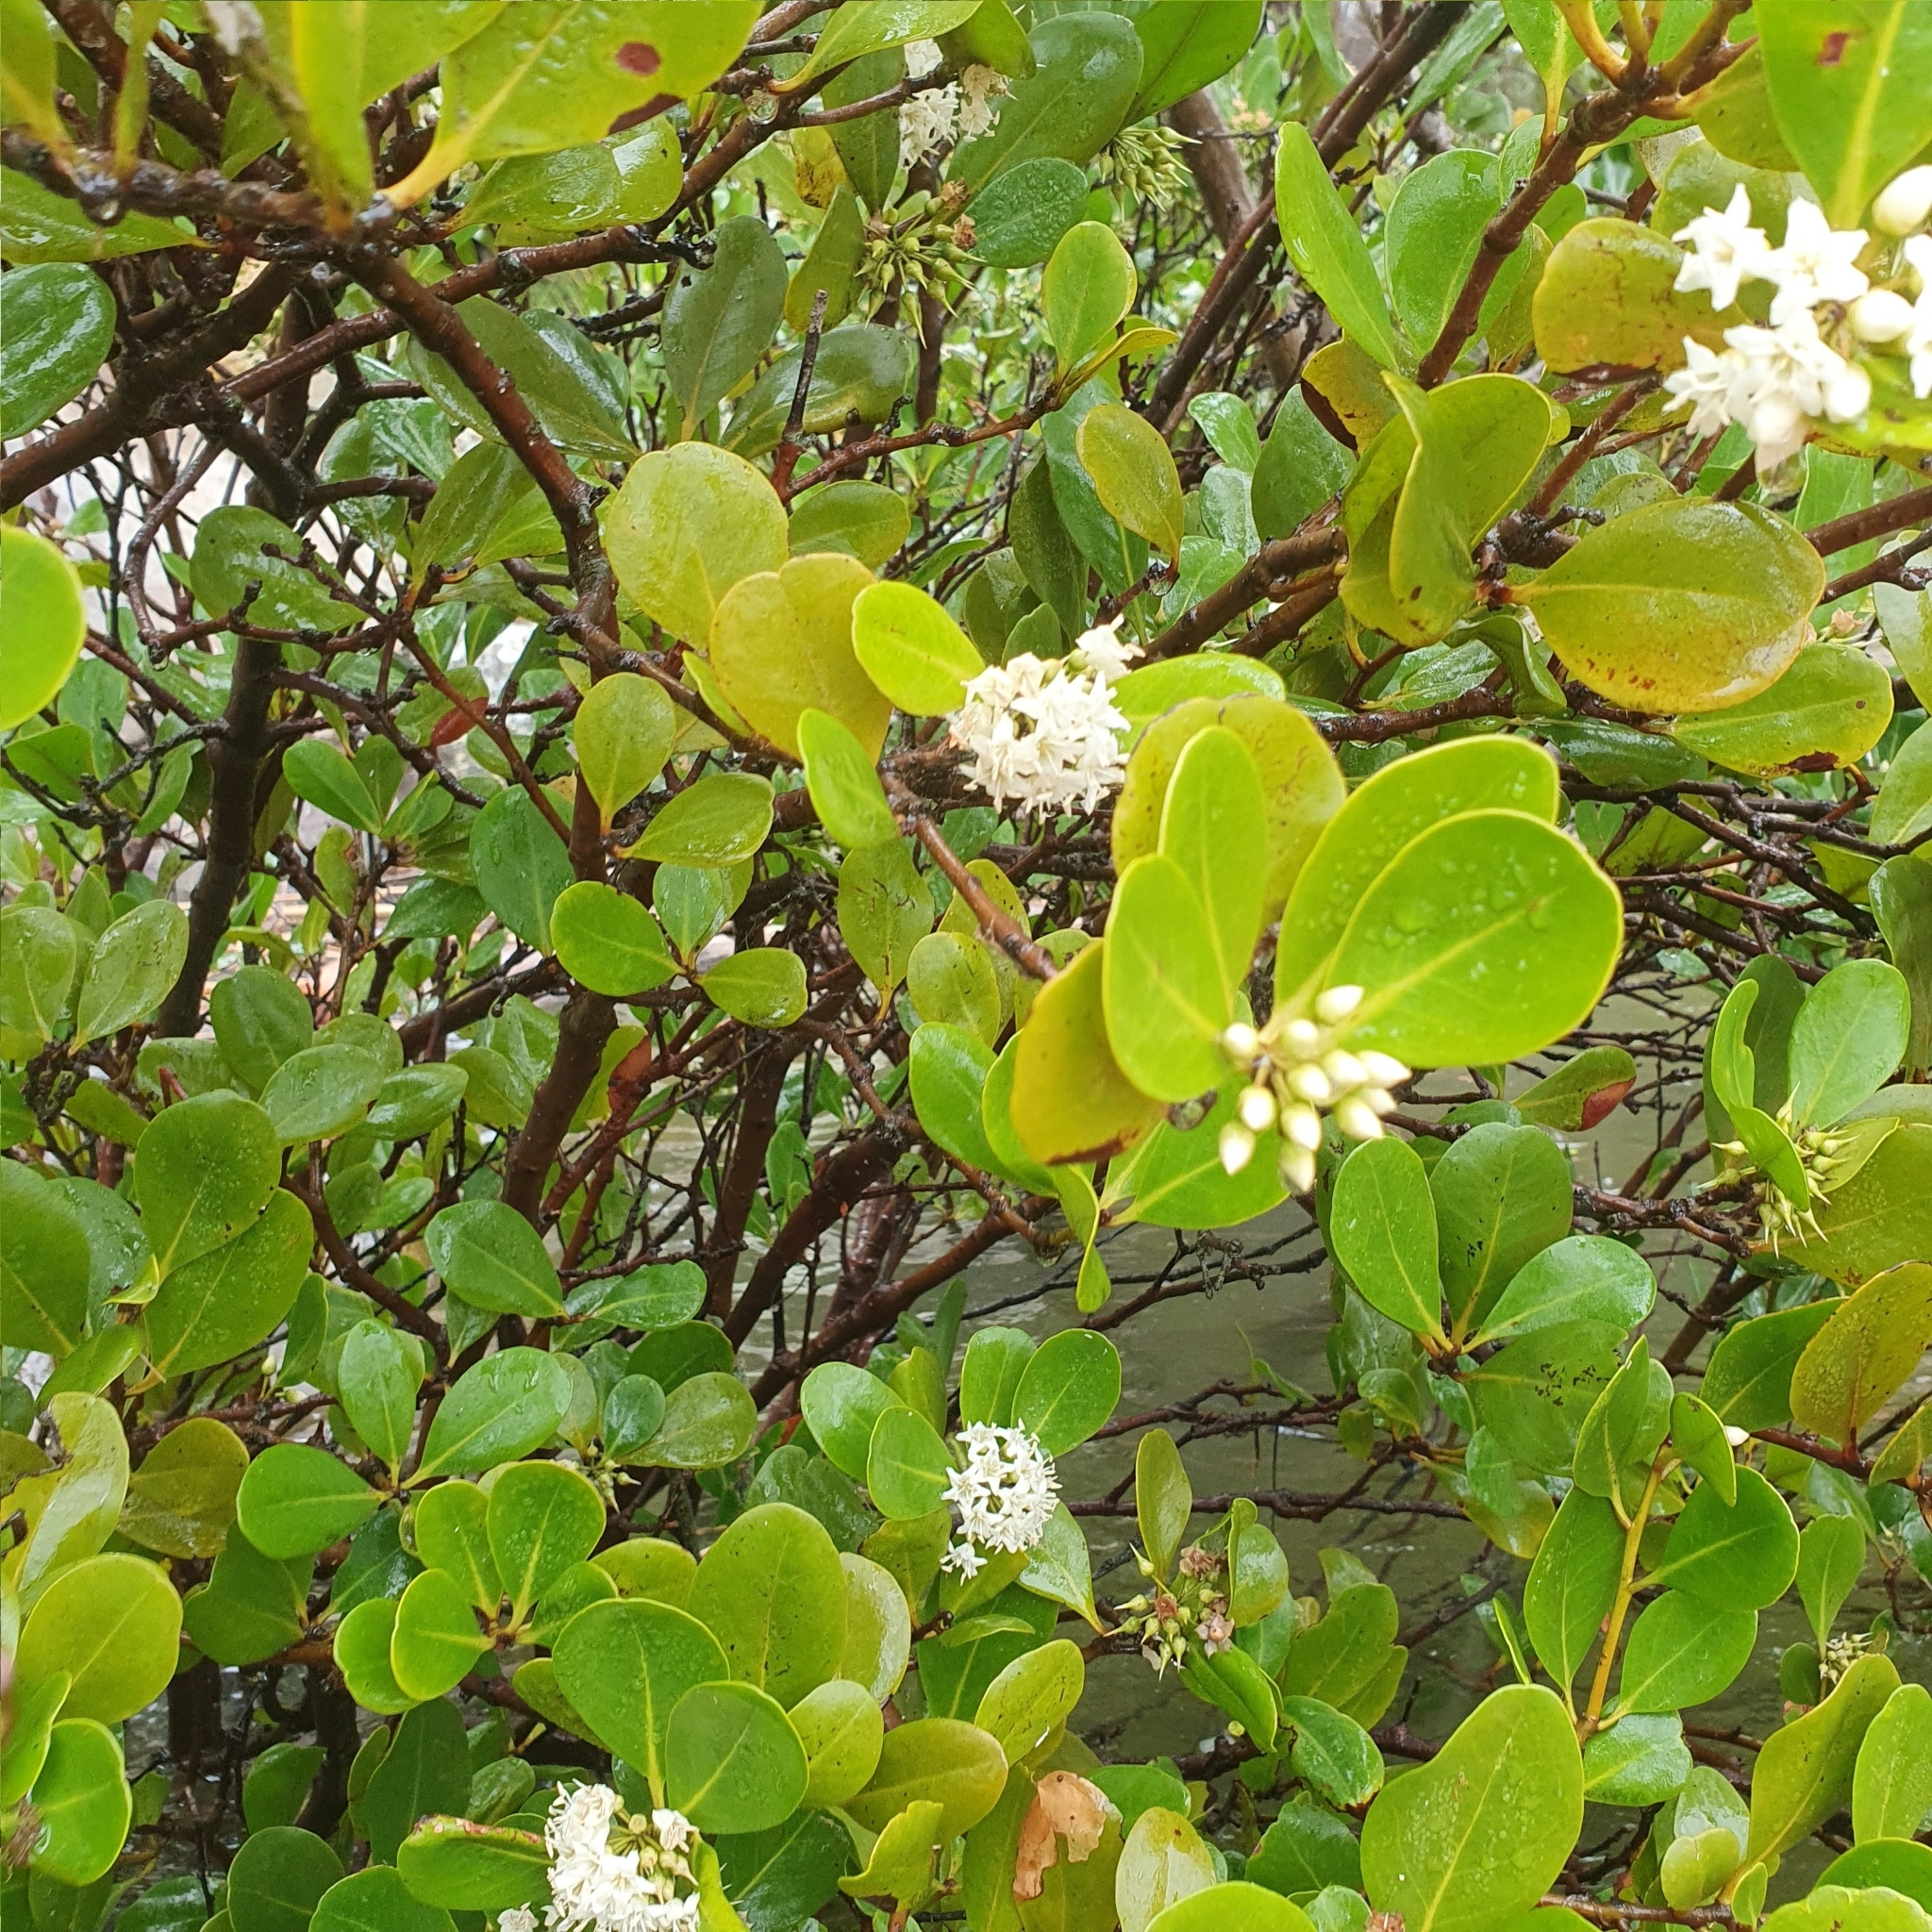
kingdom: Plantae
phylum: Tracheophyta
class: Magnoliopsida
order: Ericales
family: Primulaceae
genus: Aegiceras
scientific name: Aegiceras corniculatum
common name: River mangrove
